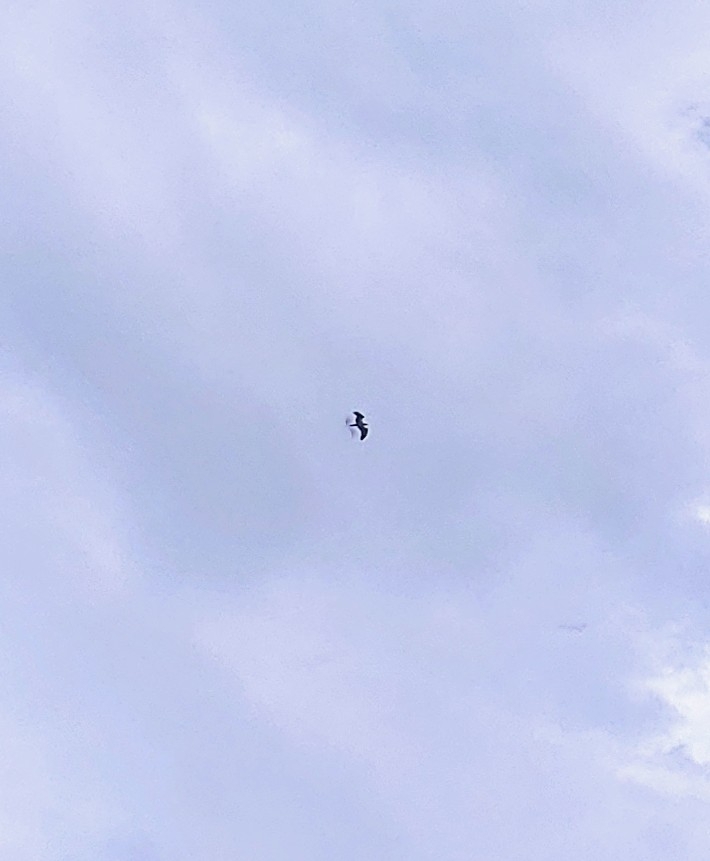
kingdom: Animalia
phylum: Chordata
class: Aves
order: Accipitriformes
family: Pandionidae
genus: Pandion
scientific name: Pandion haliaetus
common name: Osprey
